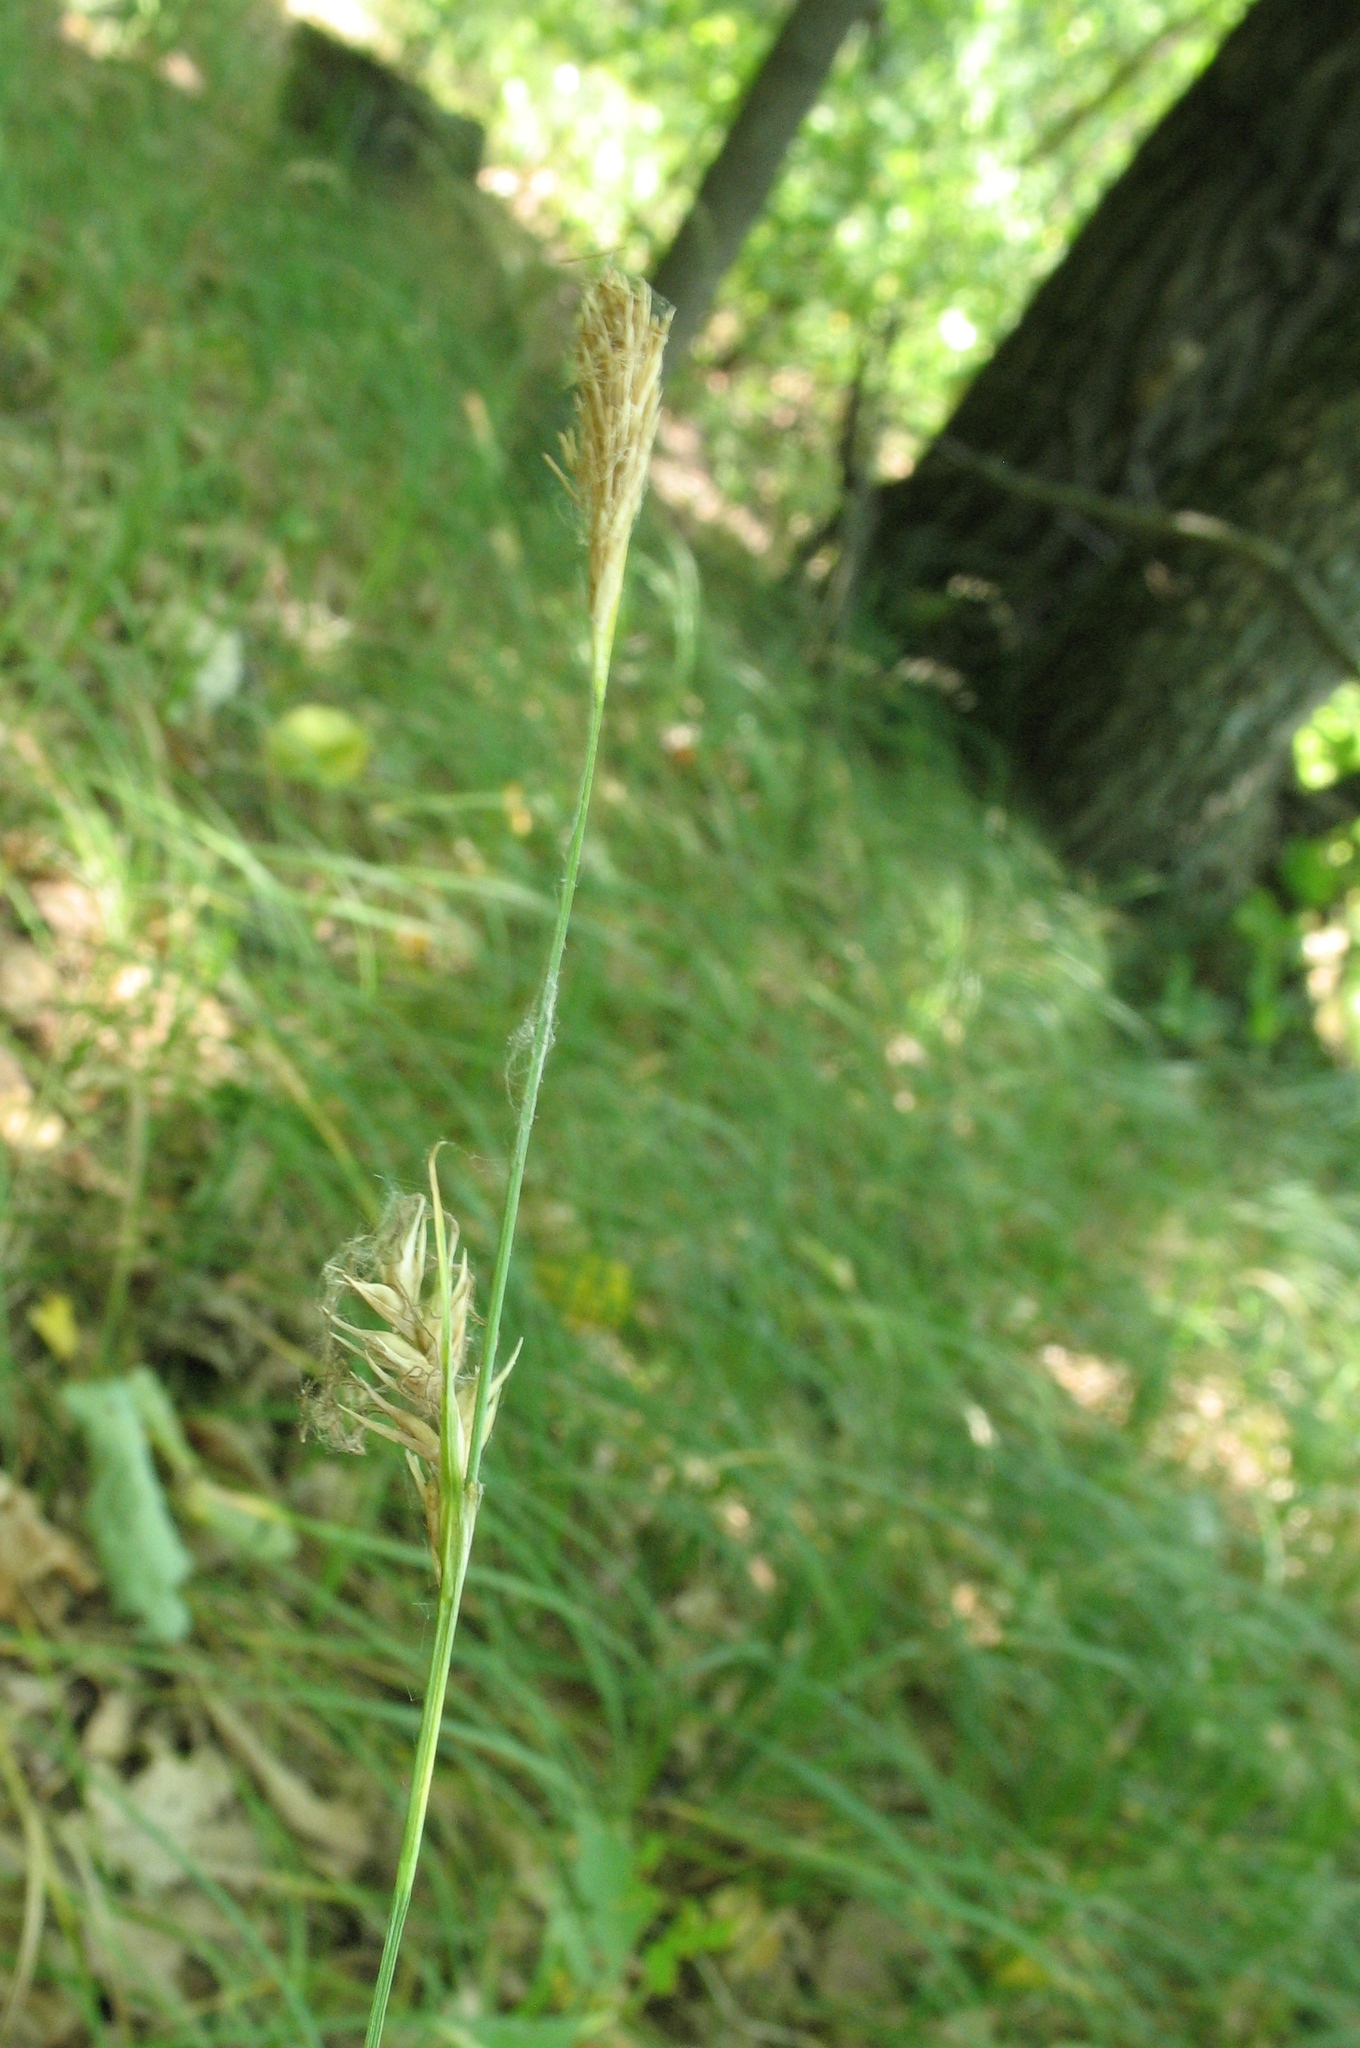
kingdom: Plantae
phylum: Tracheophyta
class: Liliopsida
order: Poales
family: Cyperaceae
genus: Carex
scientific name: Carex michelii
